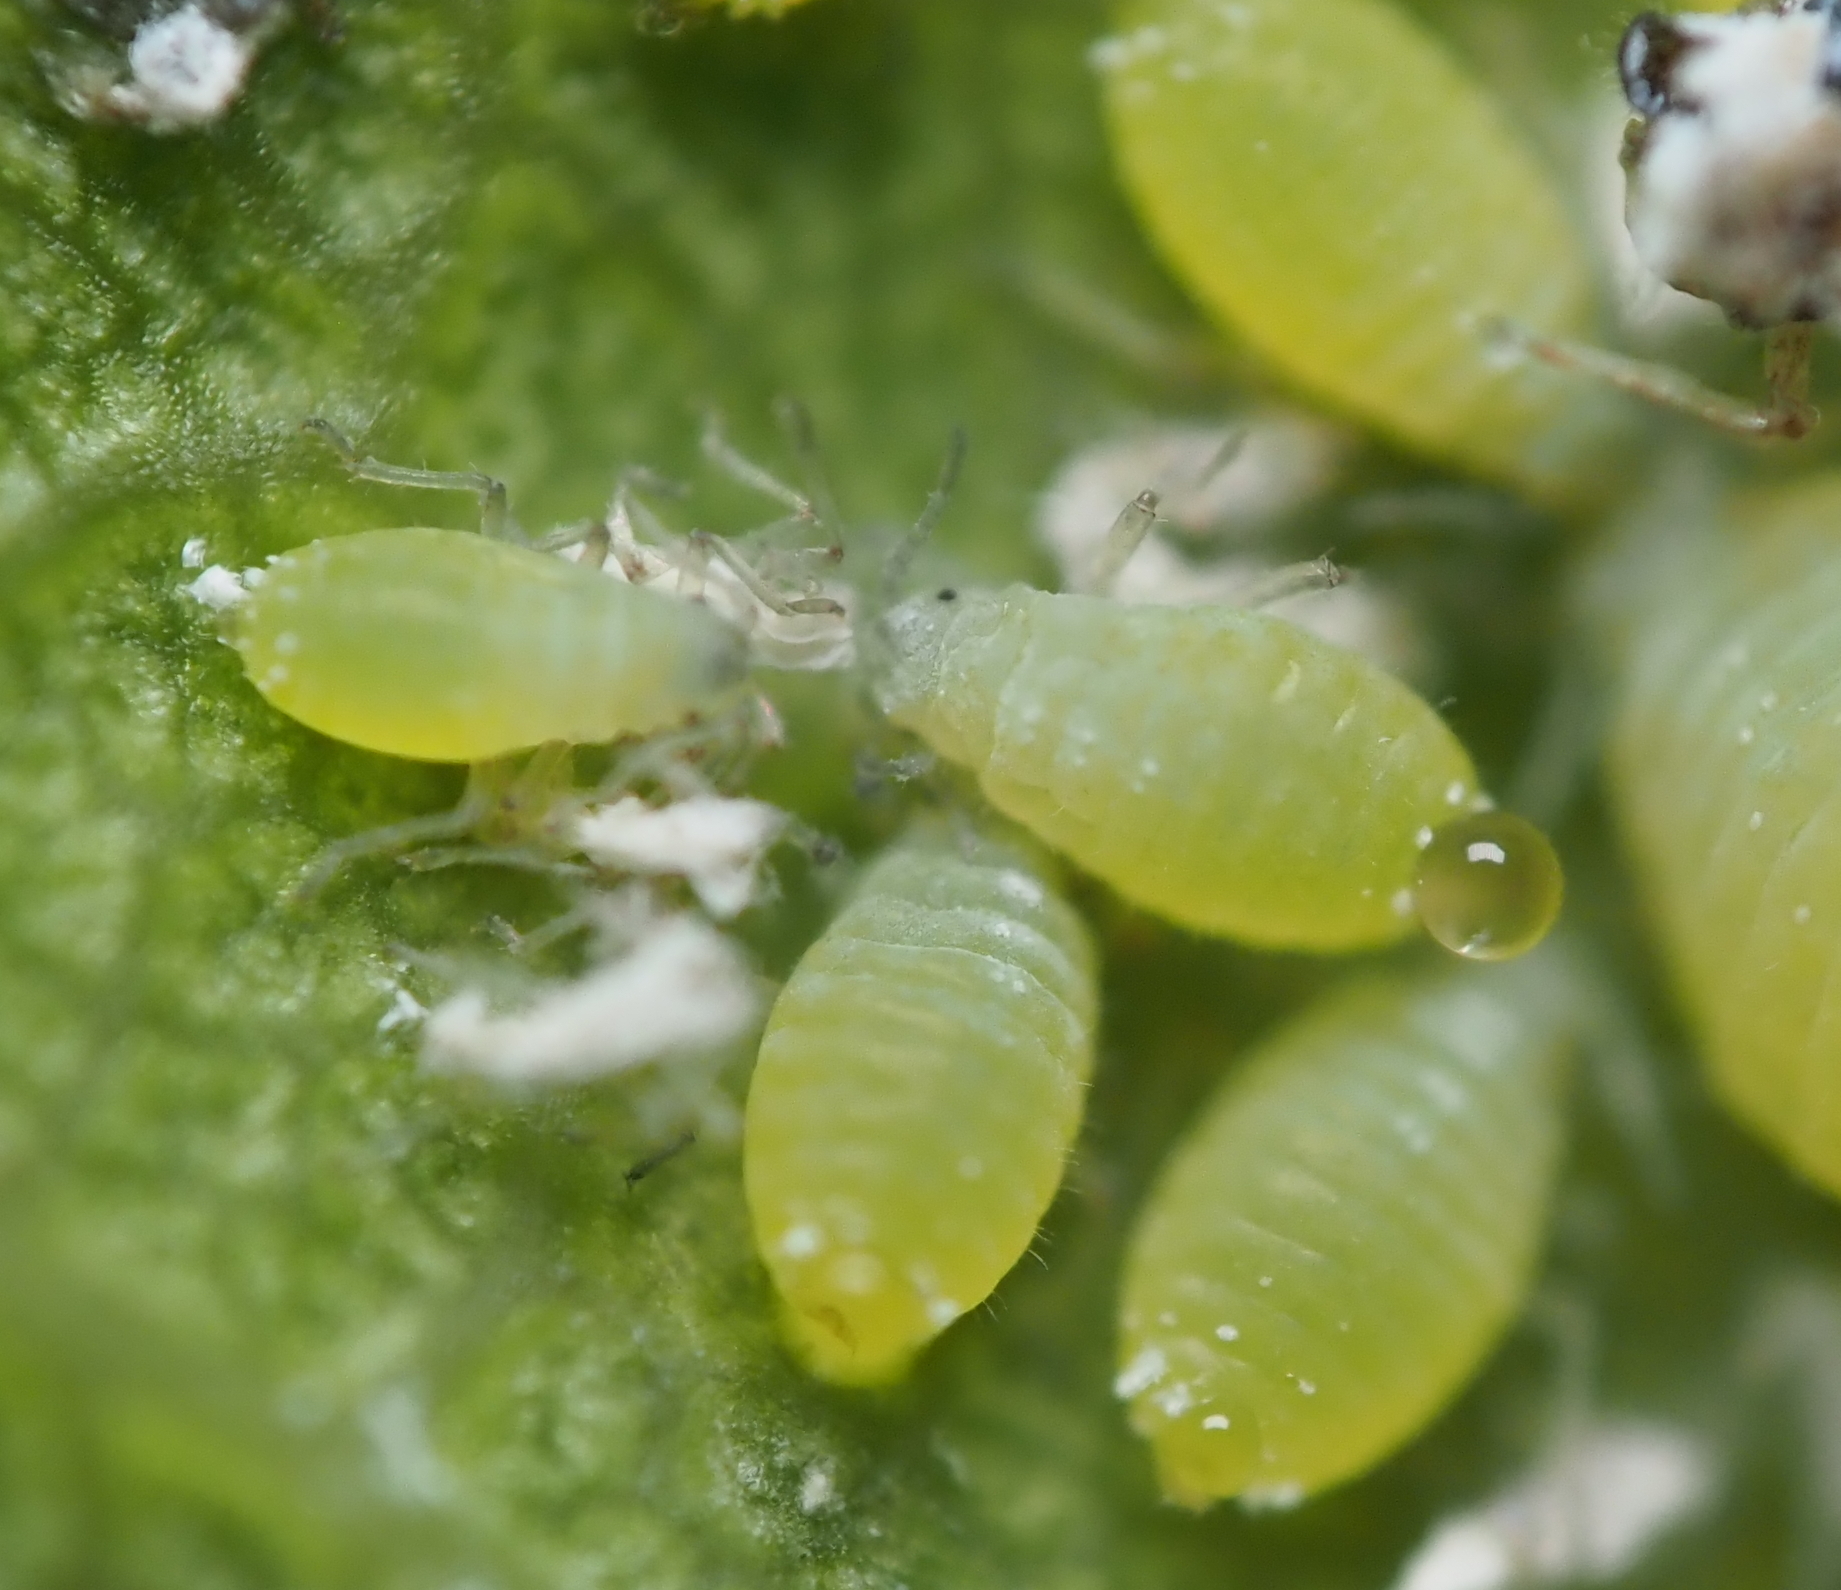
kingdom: Animalia
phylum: Arthropoda
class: Insecta
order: Hemiptera
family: Aphididae
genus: Prociphilus
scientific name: Prociphilus fraxinifolii
